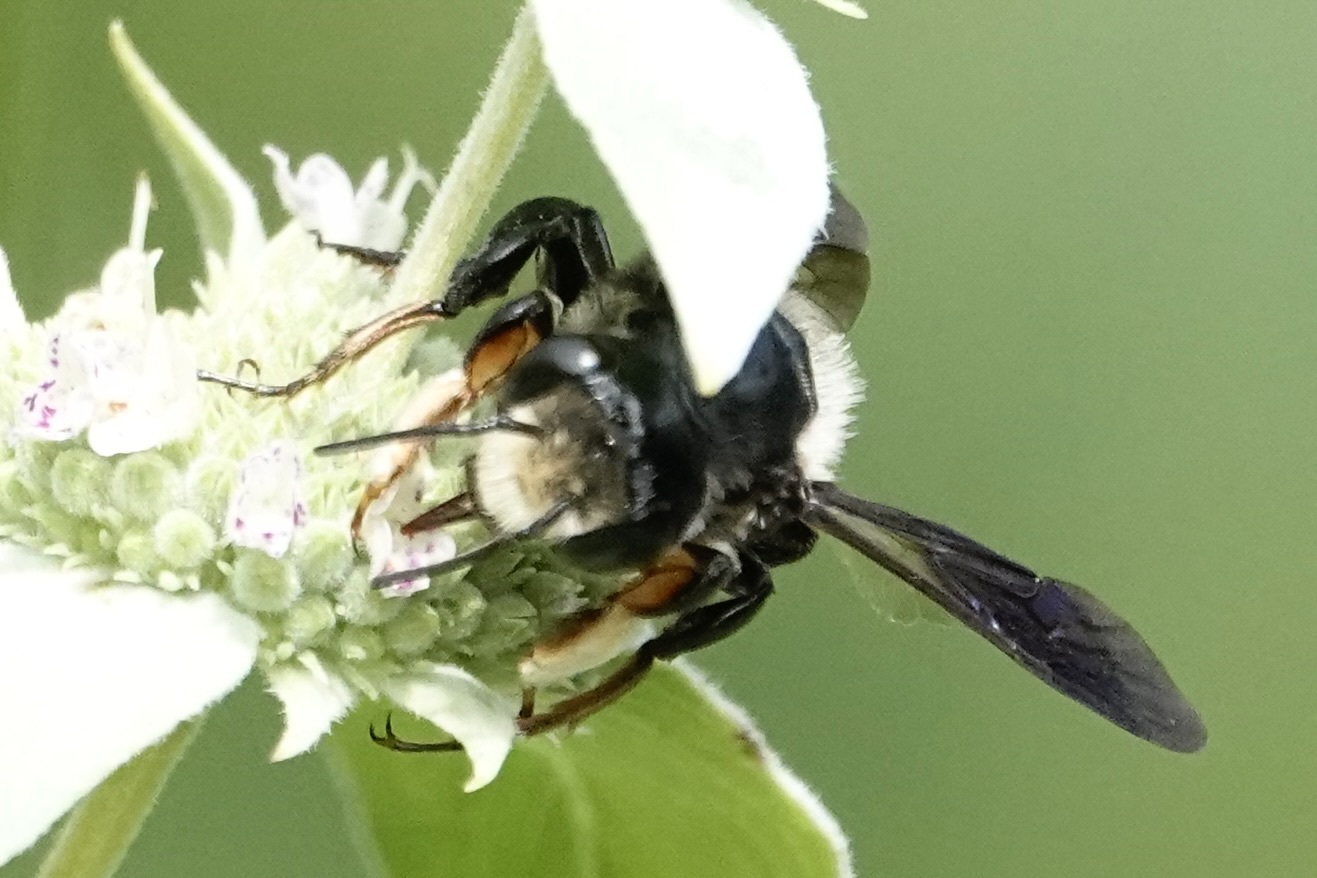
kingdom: Animalia
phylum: Arthropoda
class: Insecta
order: Hymenoptera
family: Megachilidae
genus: Megachile
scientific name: Megachile xylocopoides
